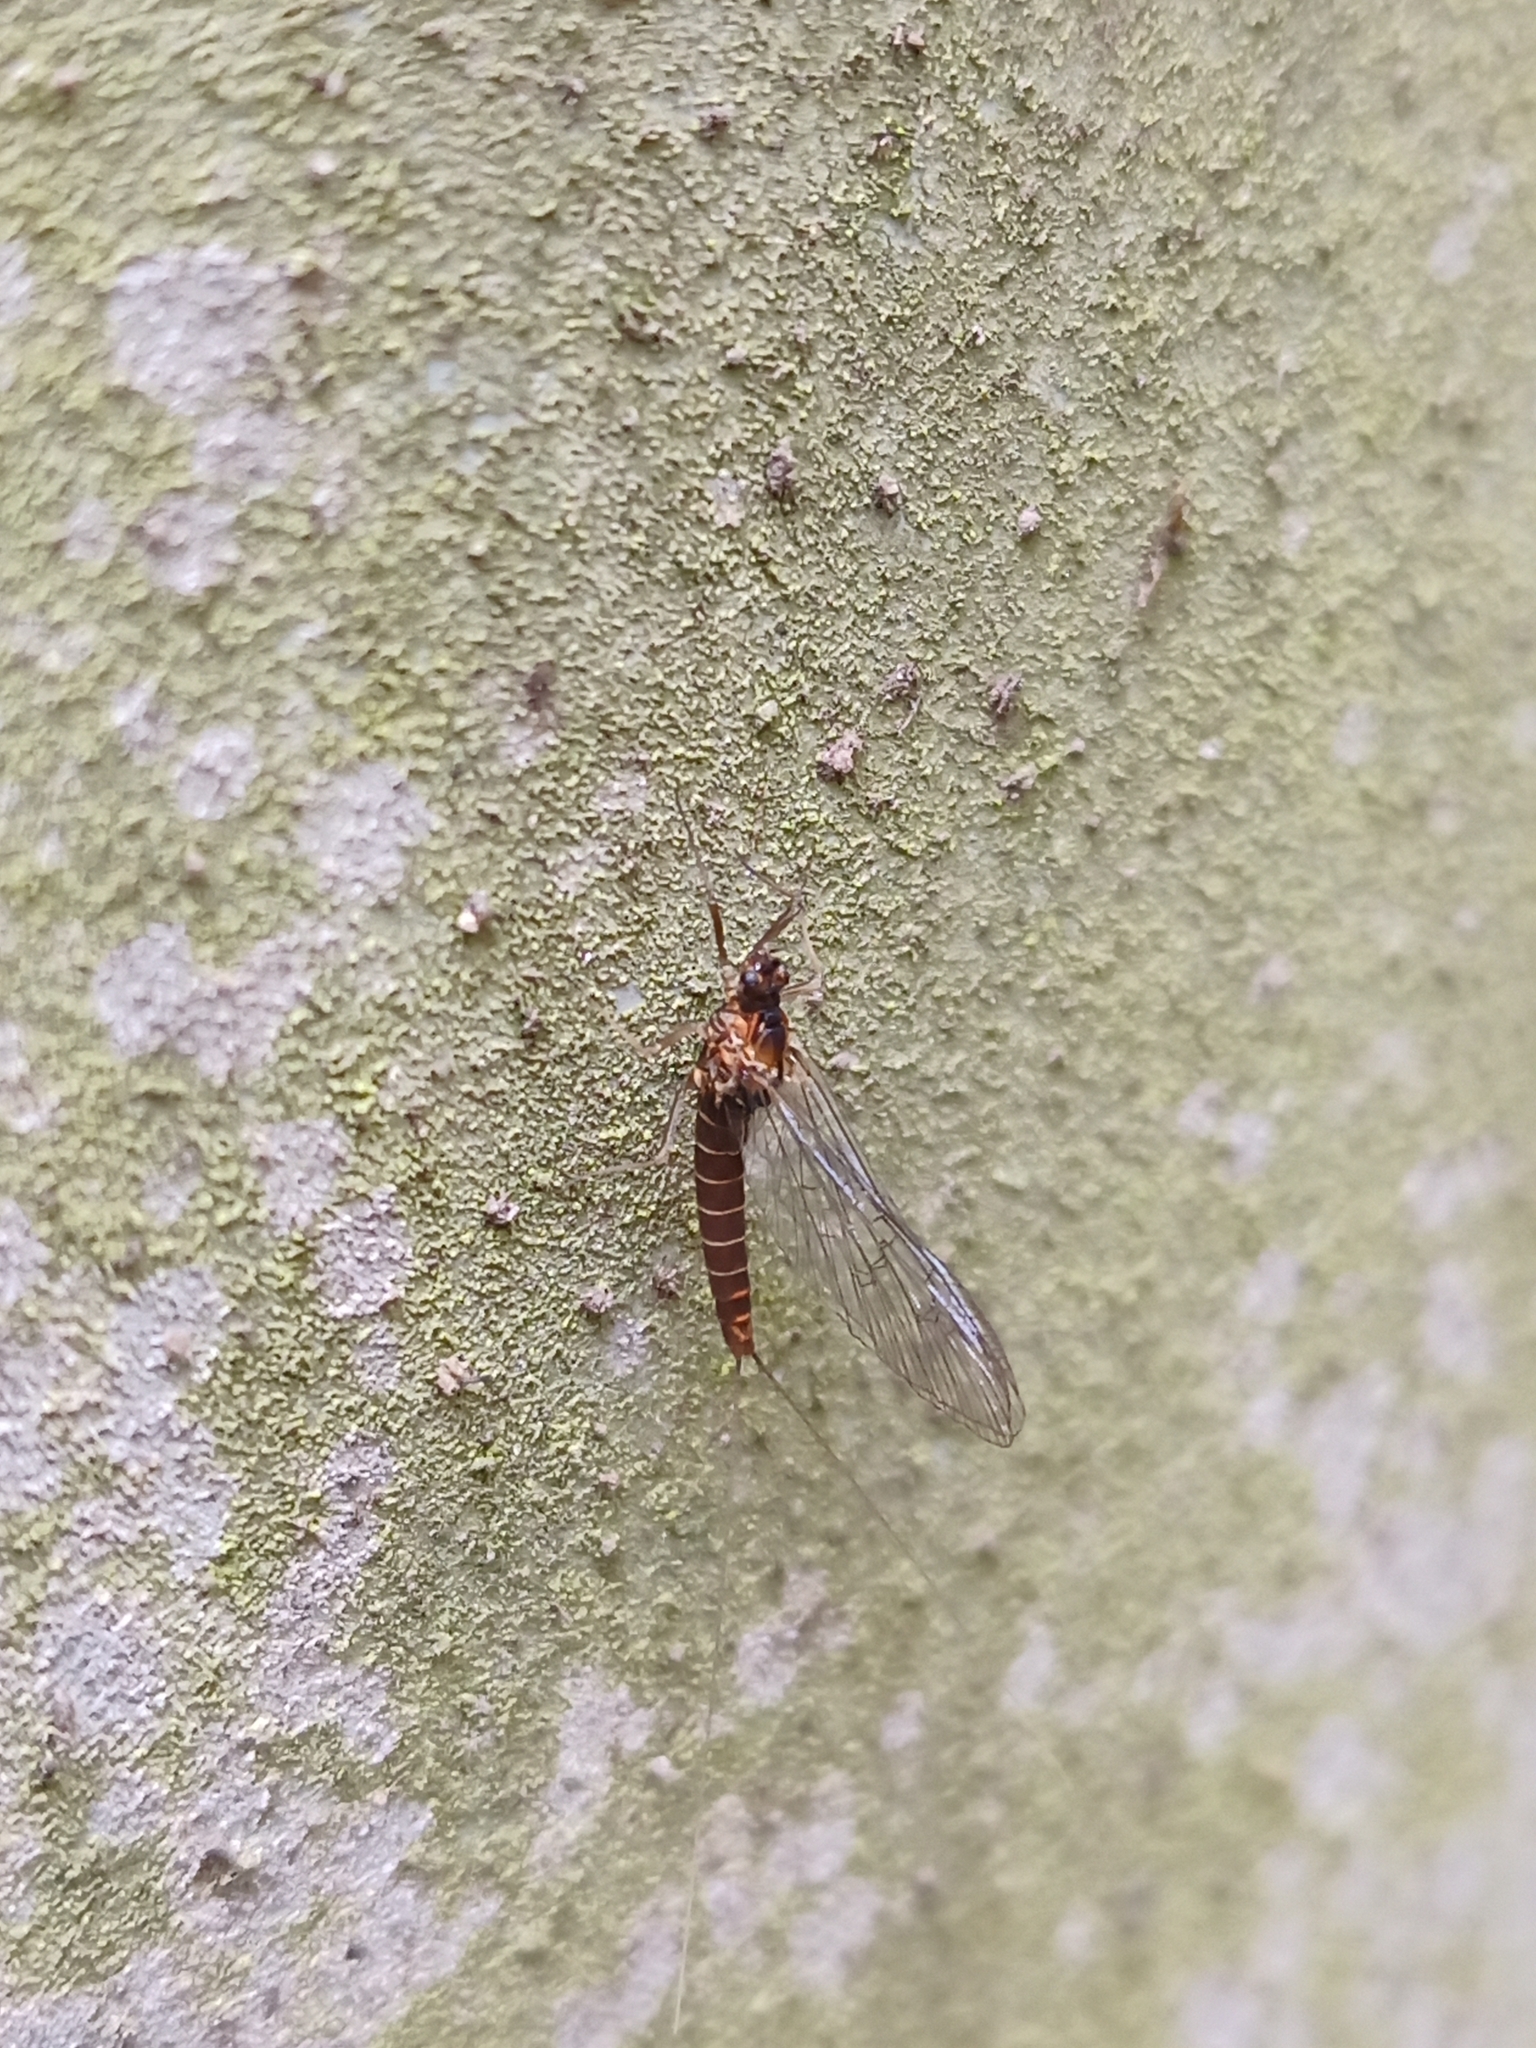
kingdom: Animalia
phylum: Arthropoda
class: Insecta
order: Ephemeroptera
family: Baetidae
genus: Baetis
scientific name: Baetis rhodani
